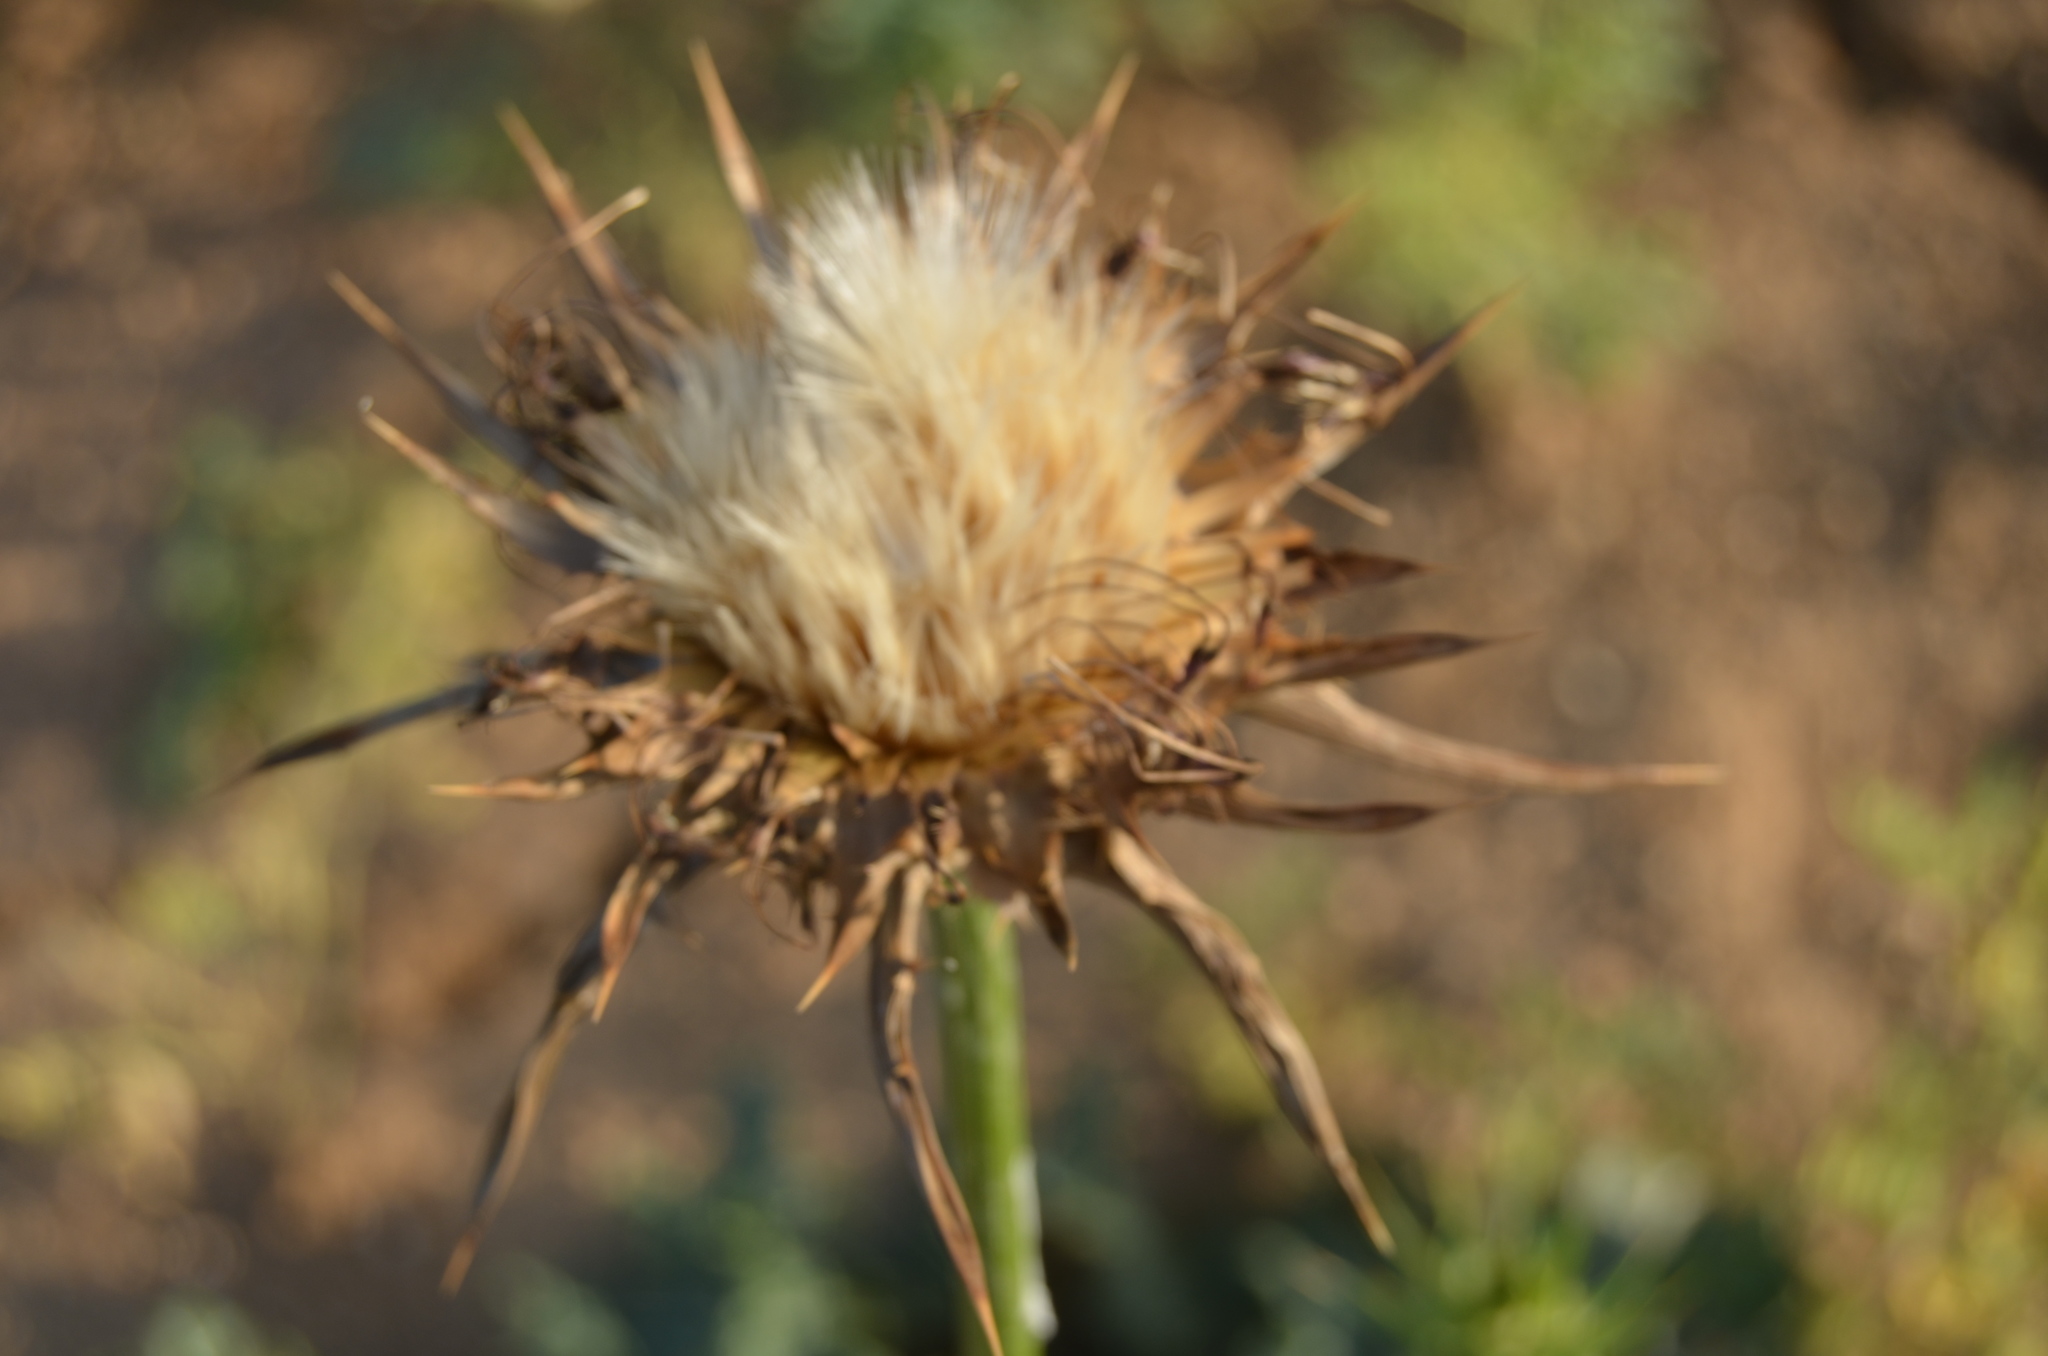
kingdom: Plantae
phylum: Tracheophyta
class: Magnoliopsida
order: Asterales
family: Asteraceae
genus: Silybum
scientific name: Silybum marianum
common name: Milk thistle
